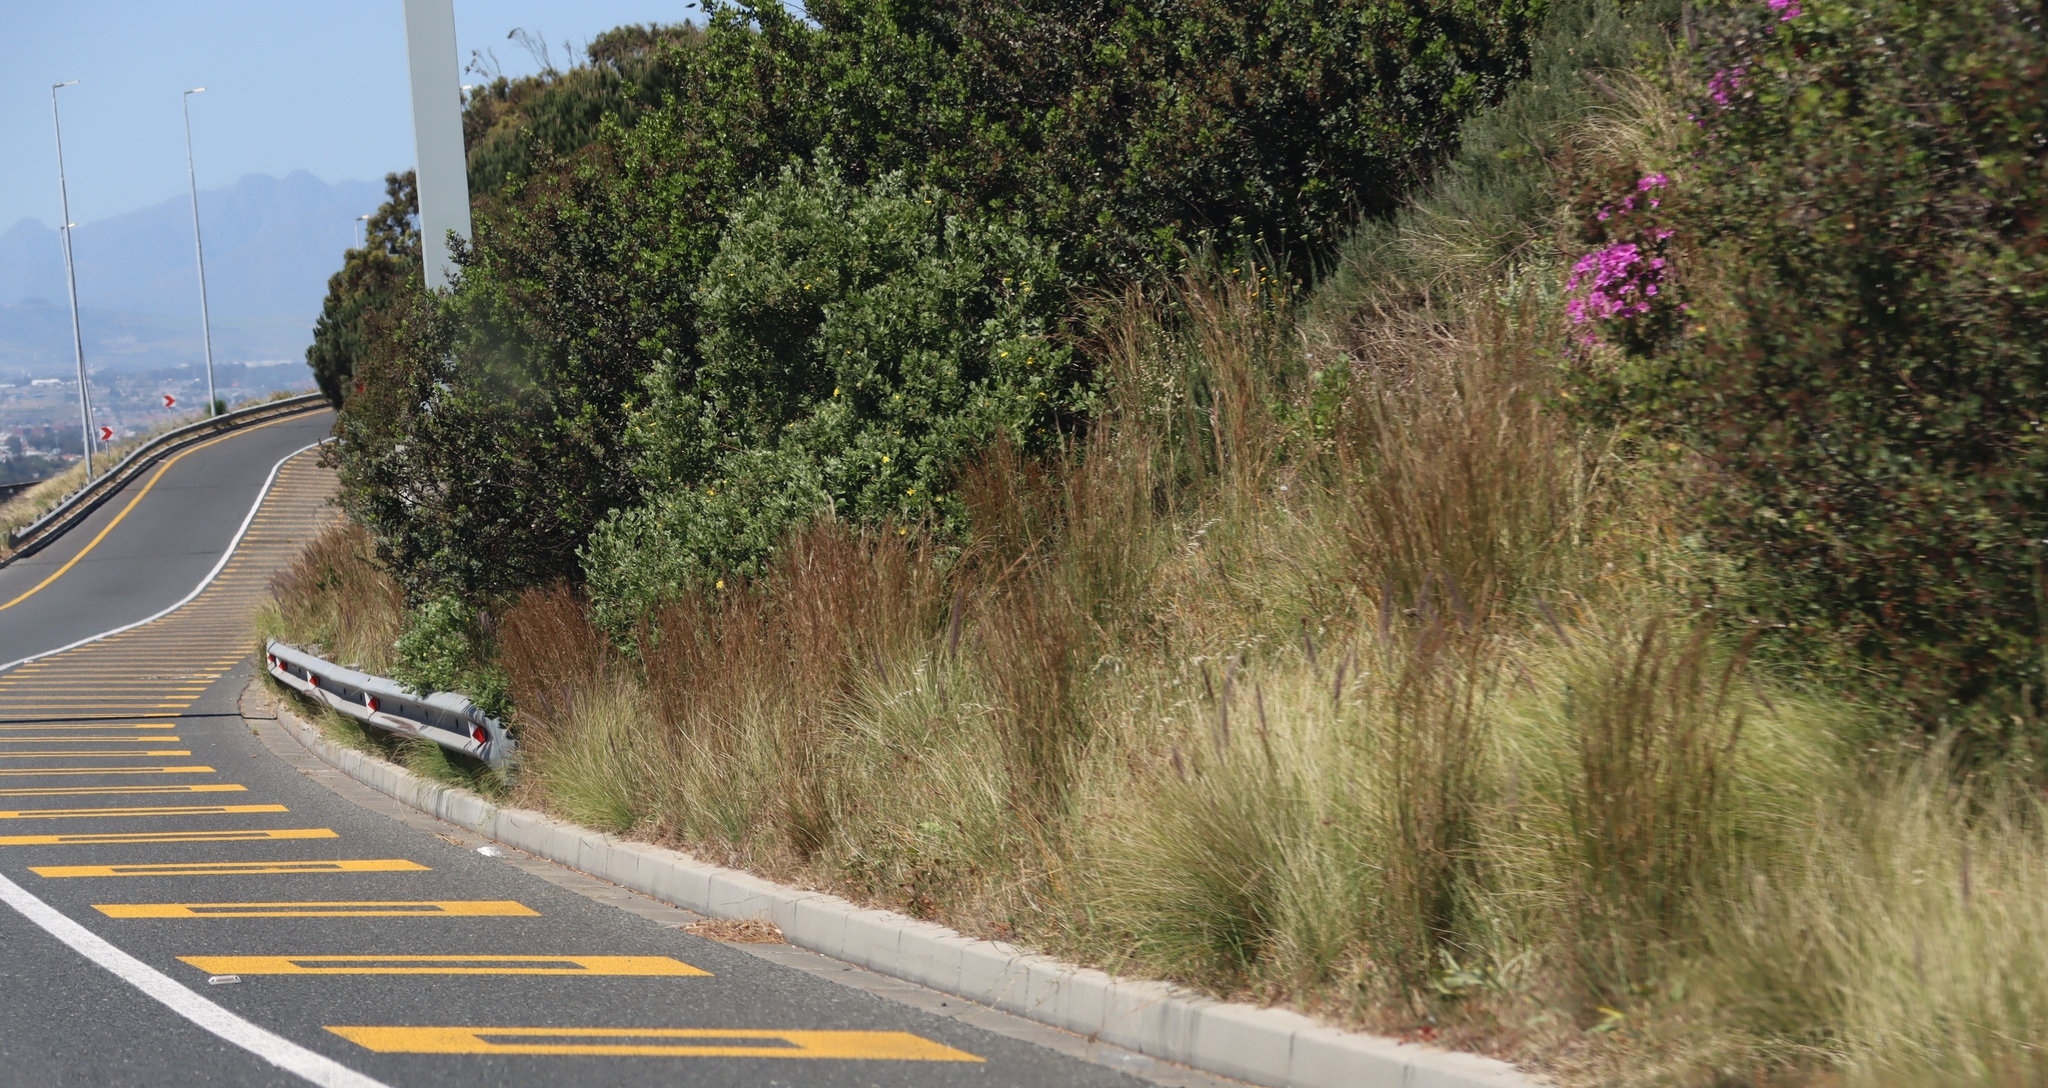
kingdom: Plantae
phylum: Tracheophyta
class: Liliopsida
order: Poales
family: Poaceae
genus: Cenchrus
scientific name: Cenchrus setaceus
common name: Crimson fountaingrass
